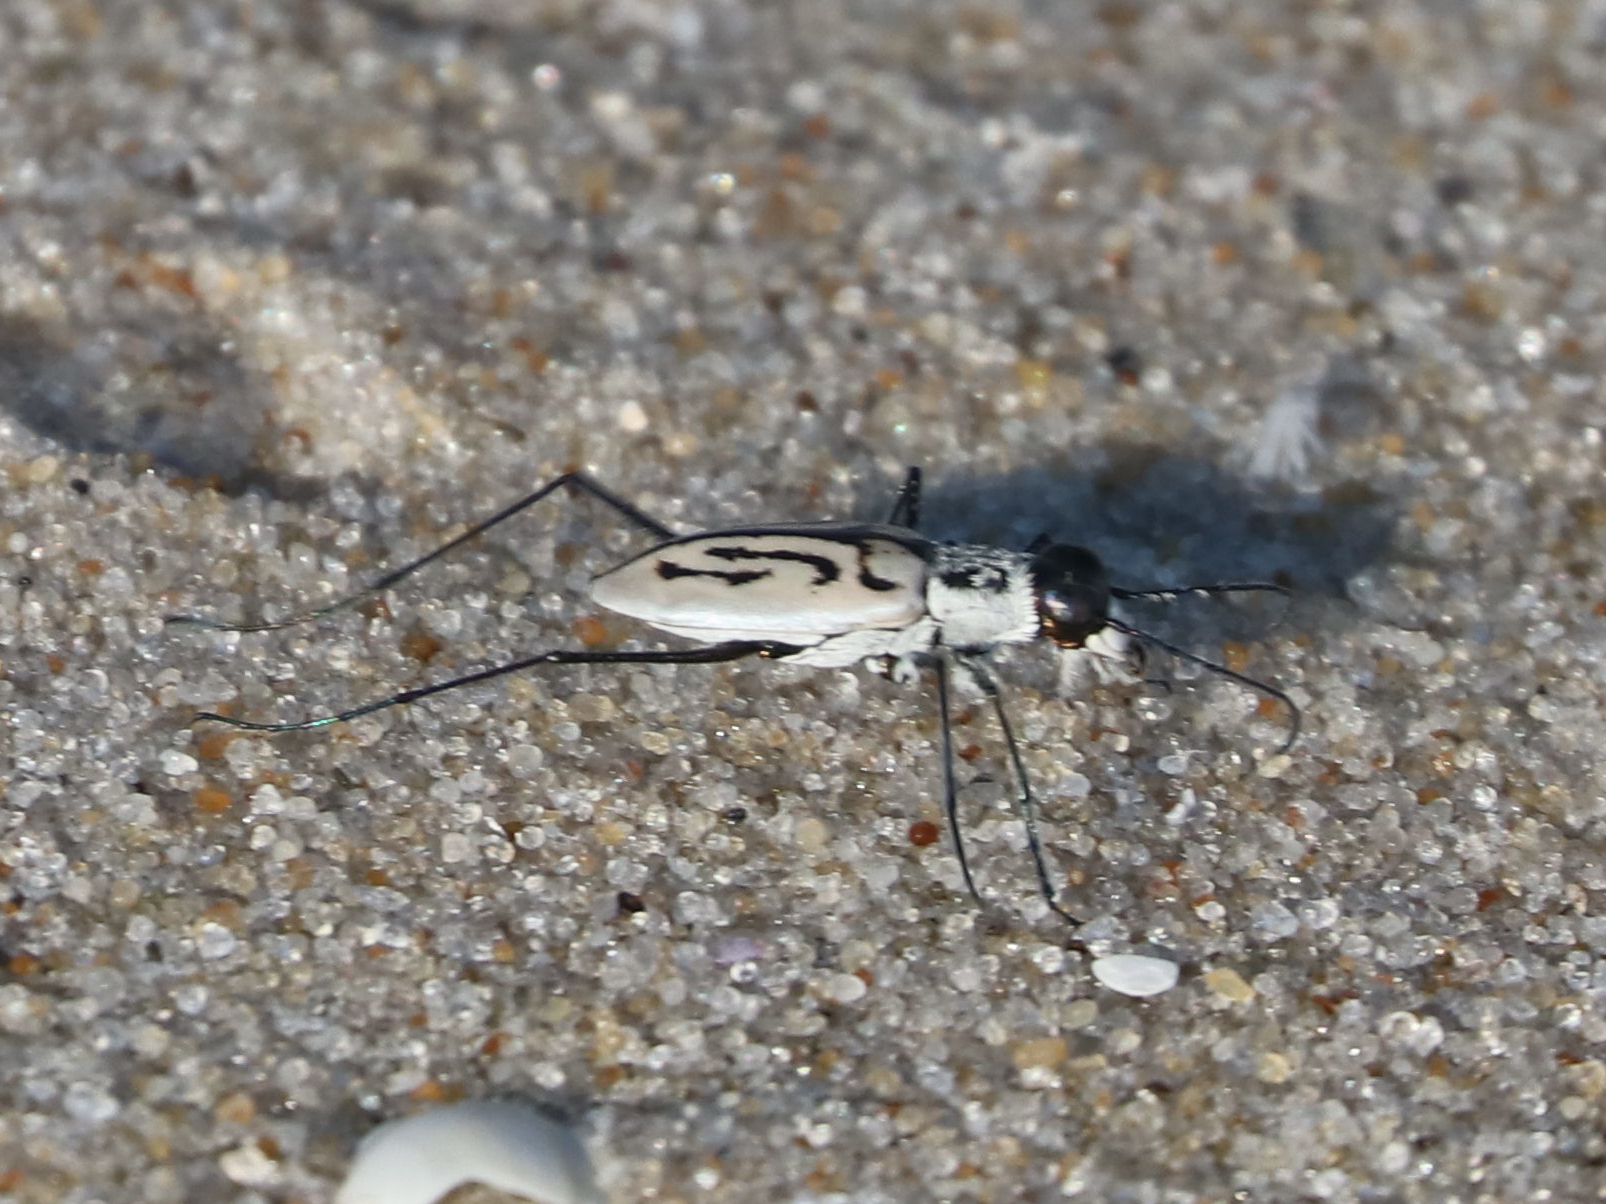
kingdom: Animalia
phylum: Arthropoda
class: Insecta
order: Coleoptera
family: Carabidae
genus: Habroscelimorpha
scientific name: Habroscelimorpha dorsalis
